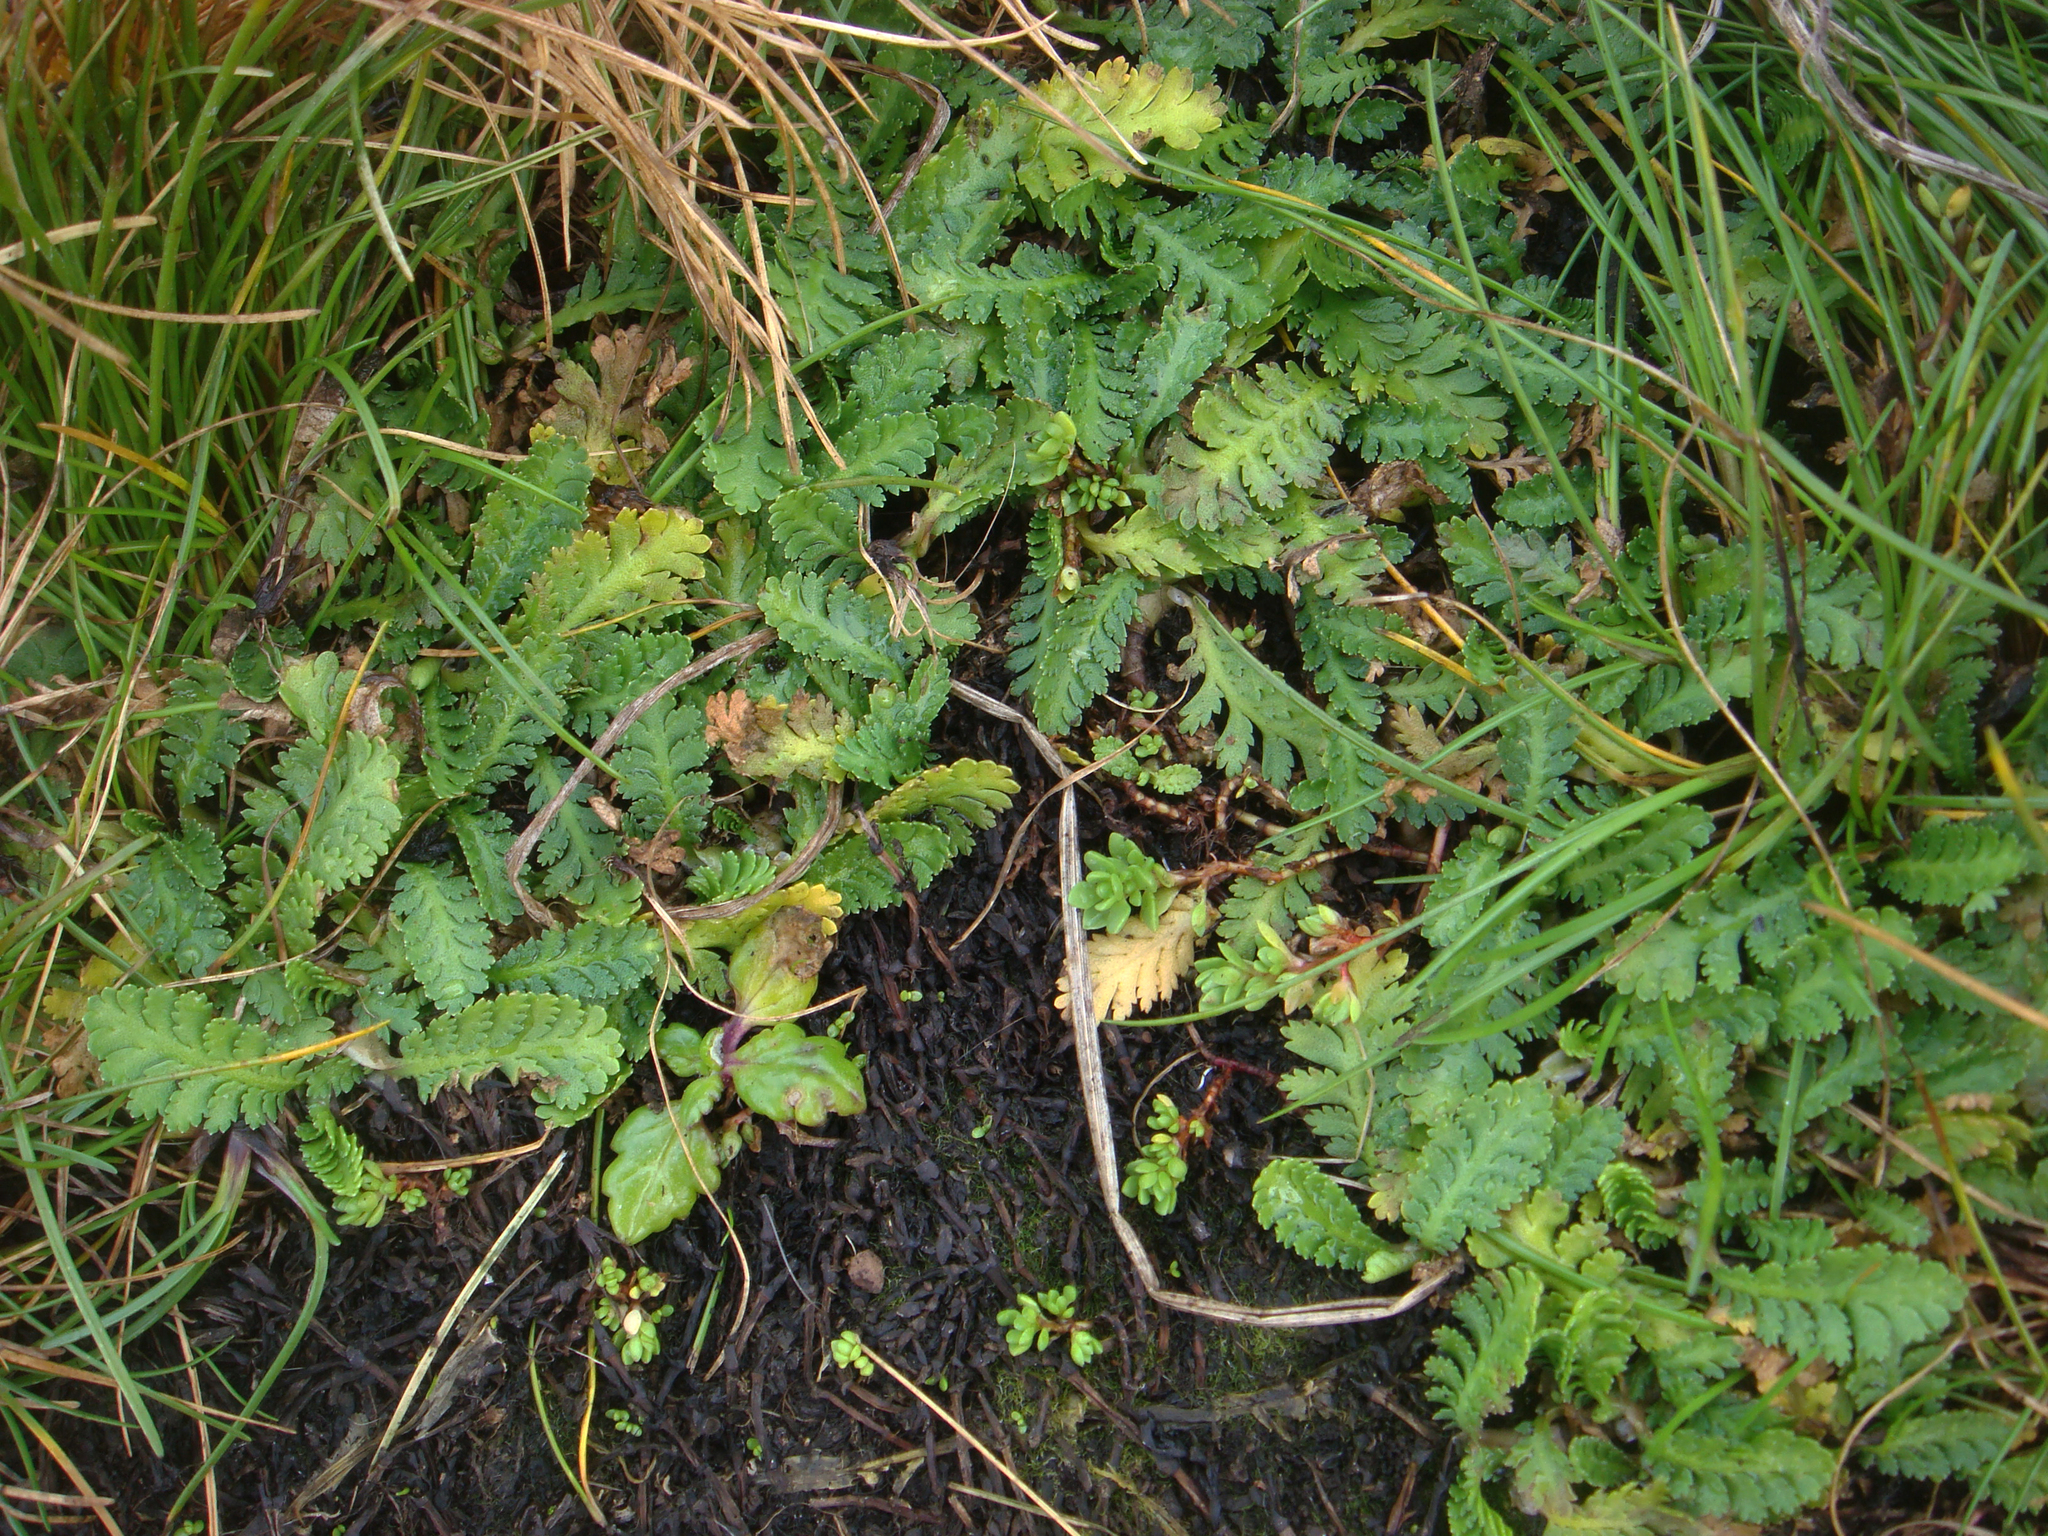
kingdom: Plantae
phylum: Tracheophyta
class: Magnoliopsida
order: Asterales
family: Asteraceae
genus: Leptinella
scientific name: Leptinella potentillina
